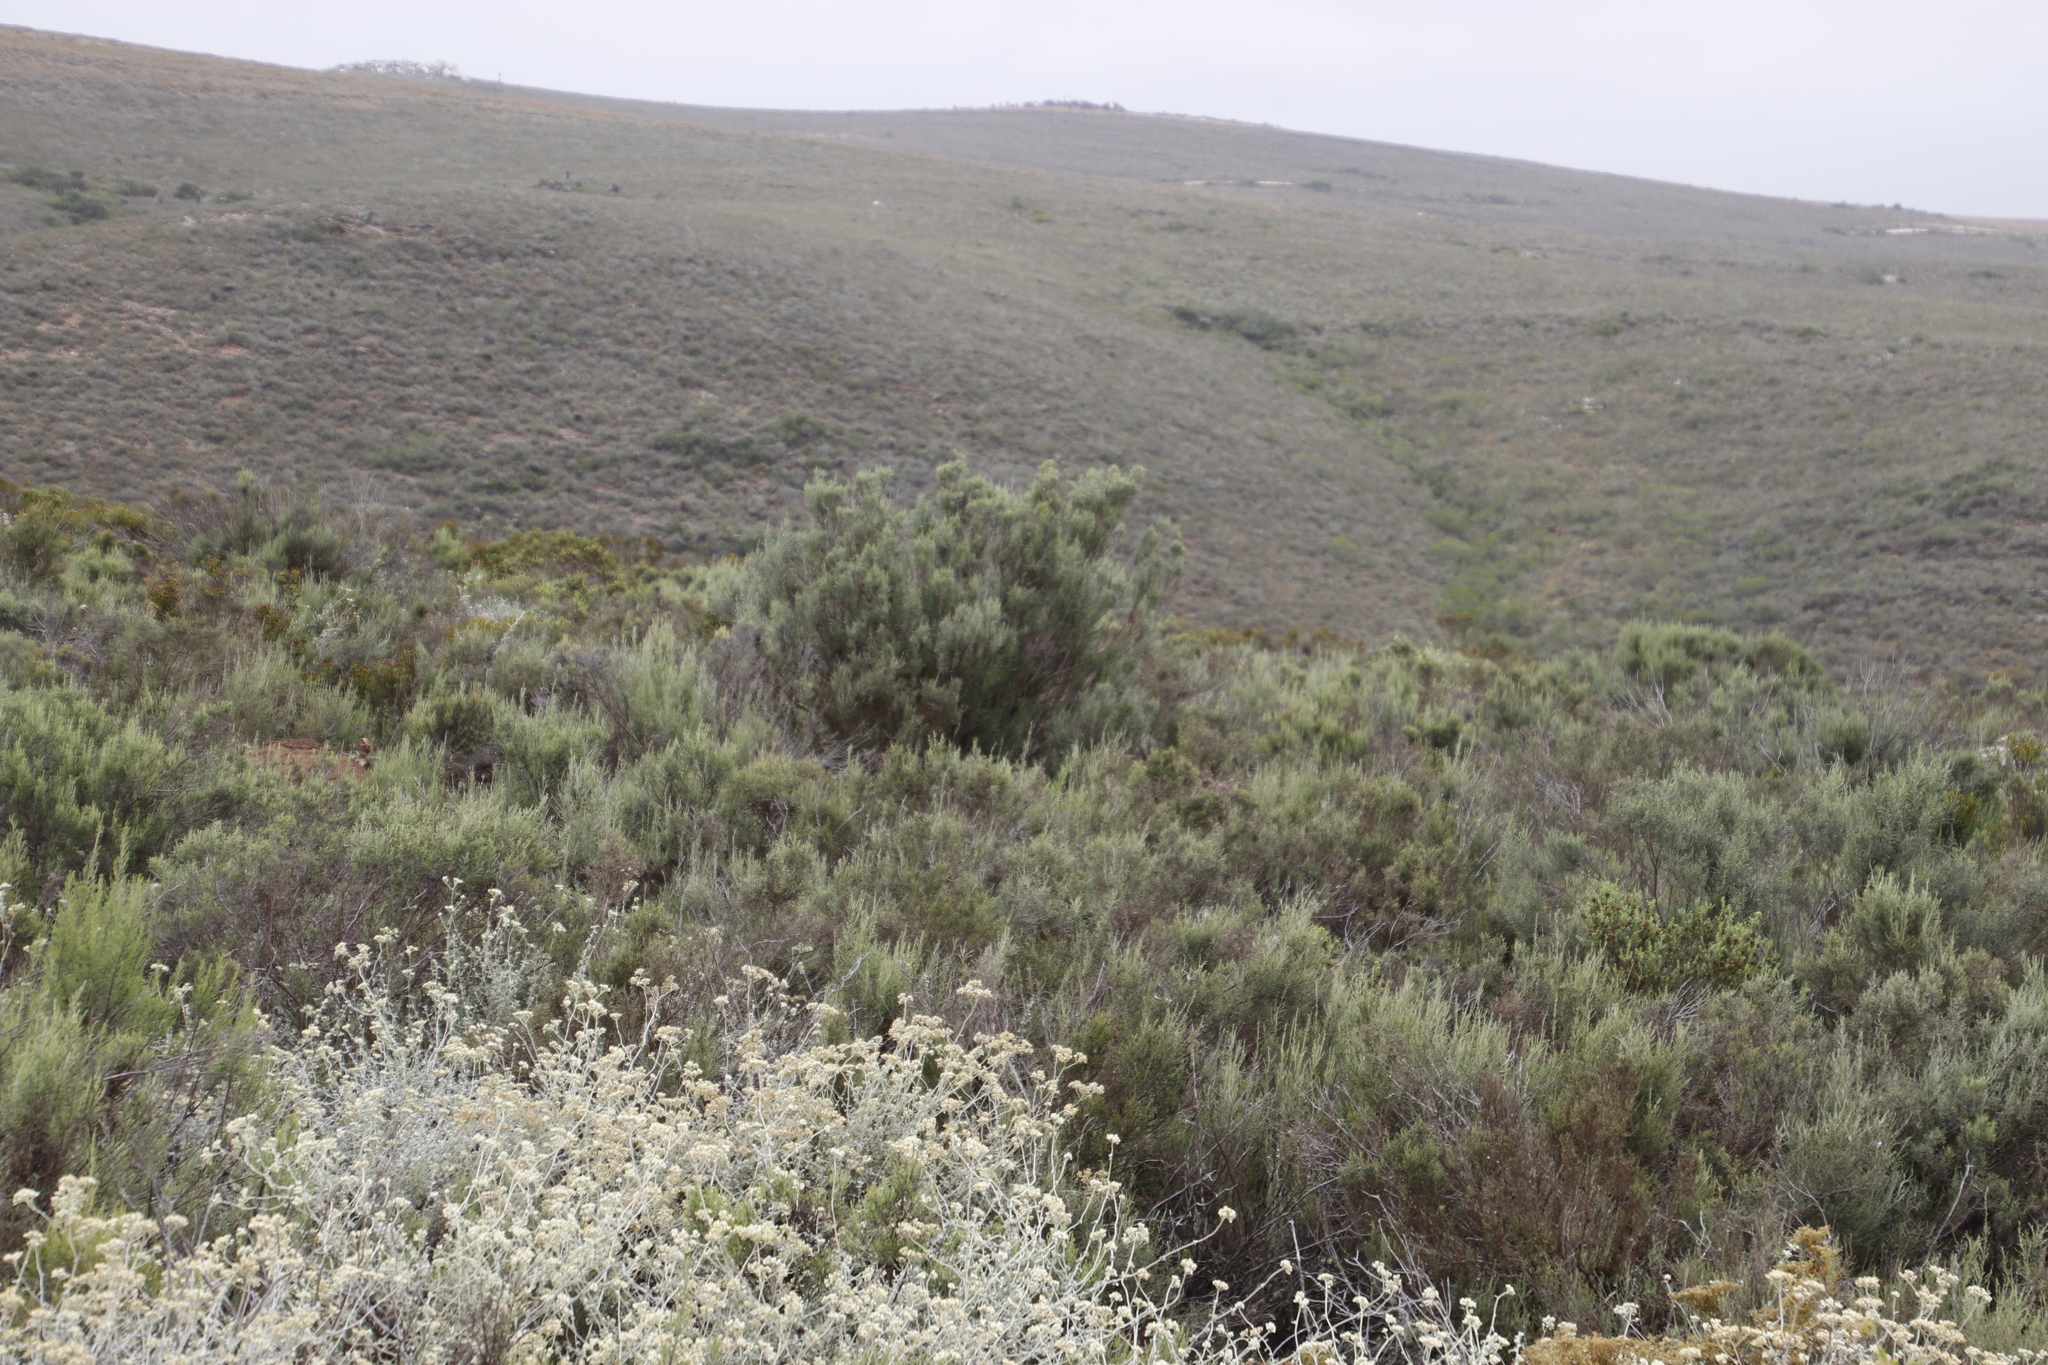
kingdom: Plantae
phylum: Tracheophyta
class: Magnoliopsida
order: Asterales
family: Asteraceae
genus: Dicerothamnus
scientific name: Dicerothamnus rhinocerotis
